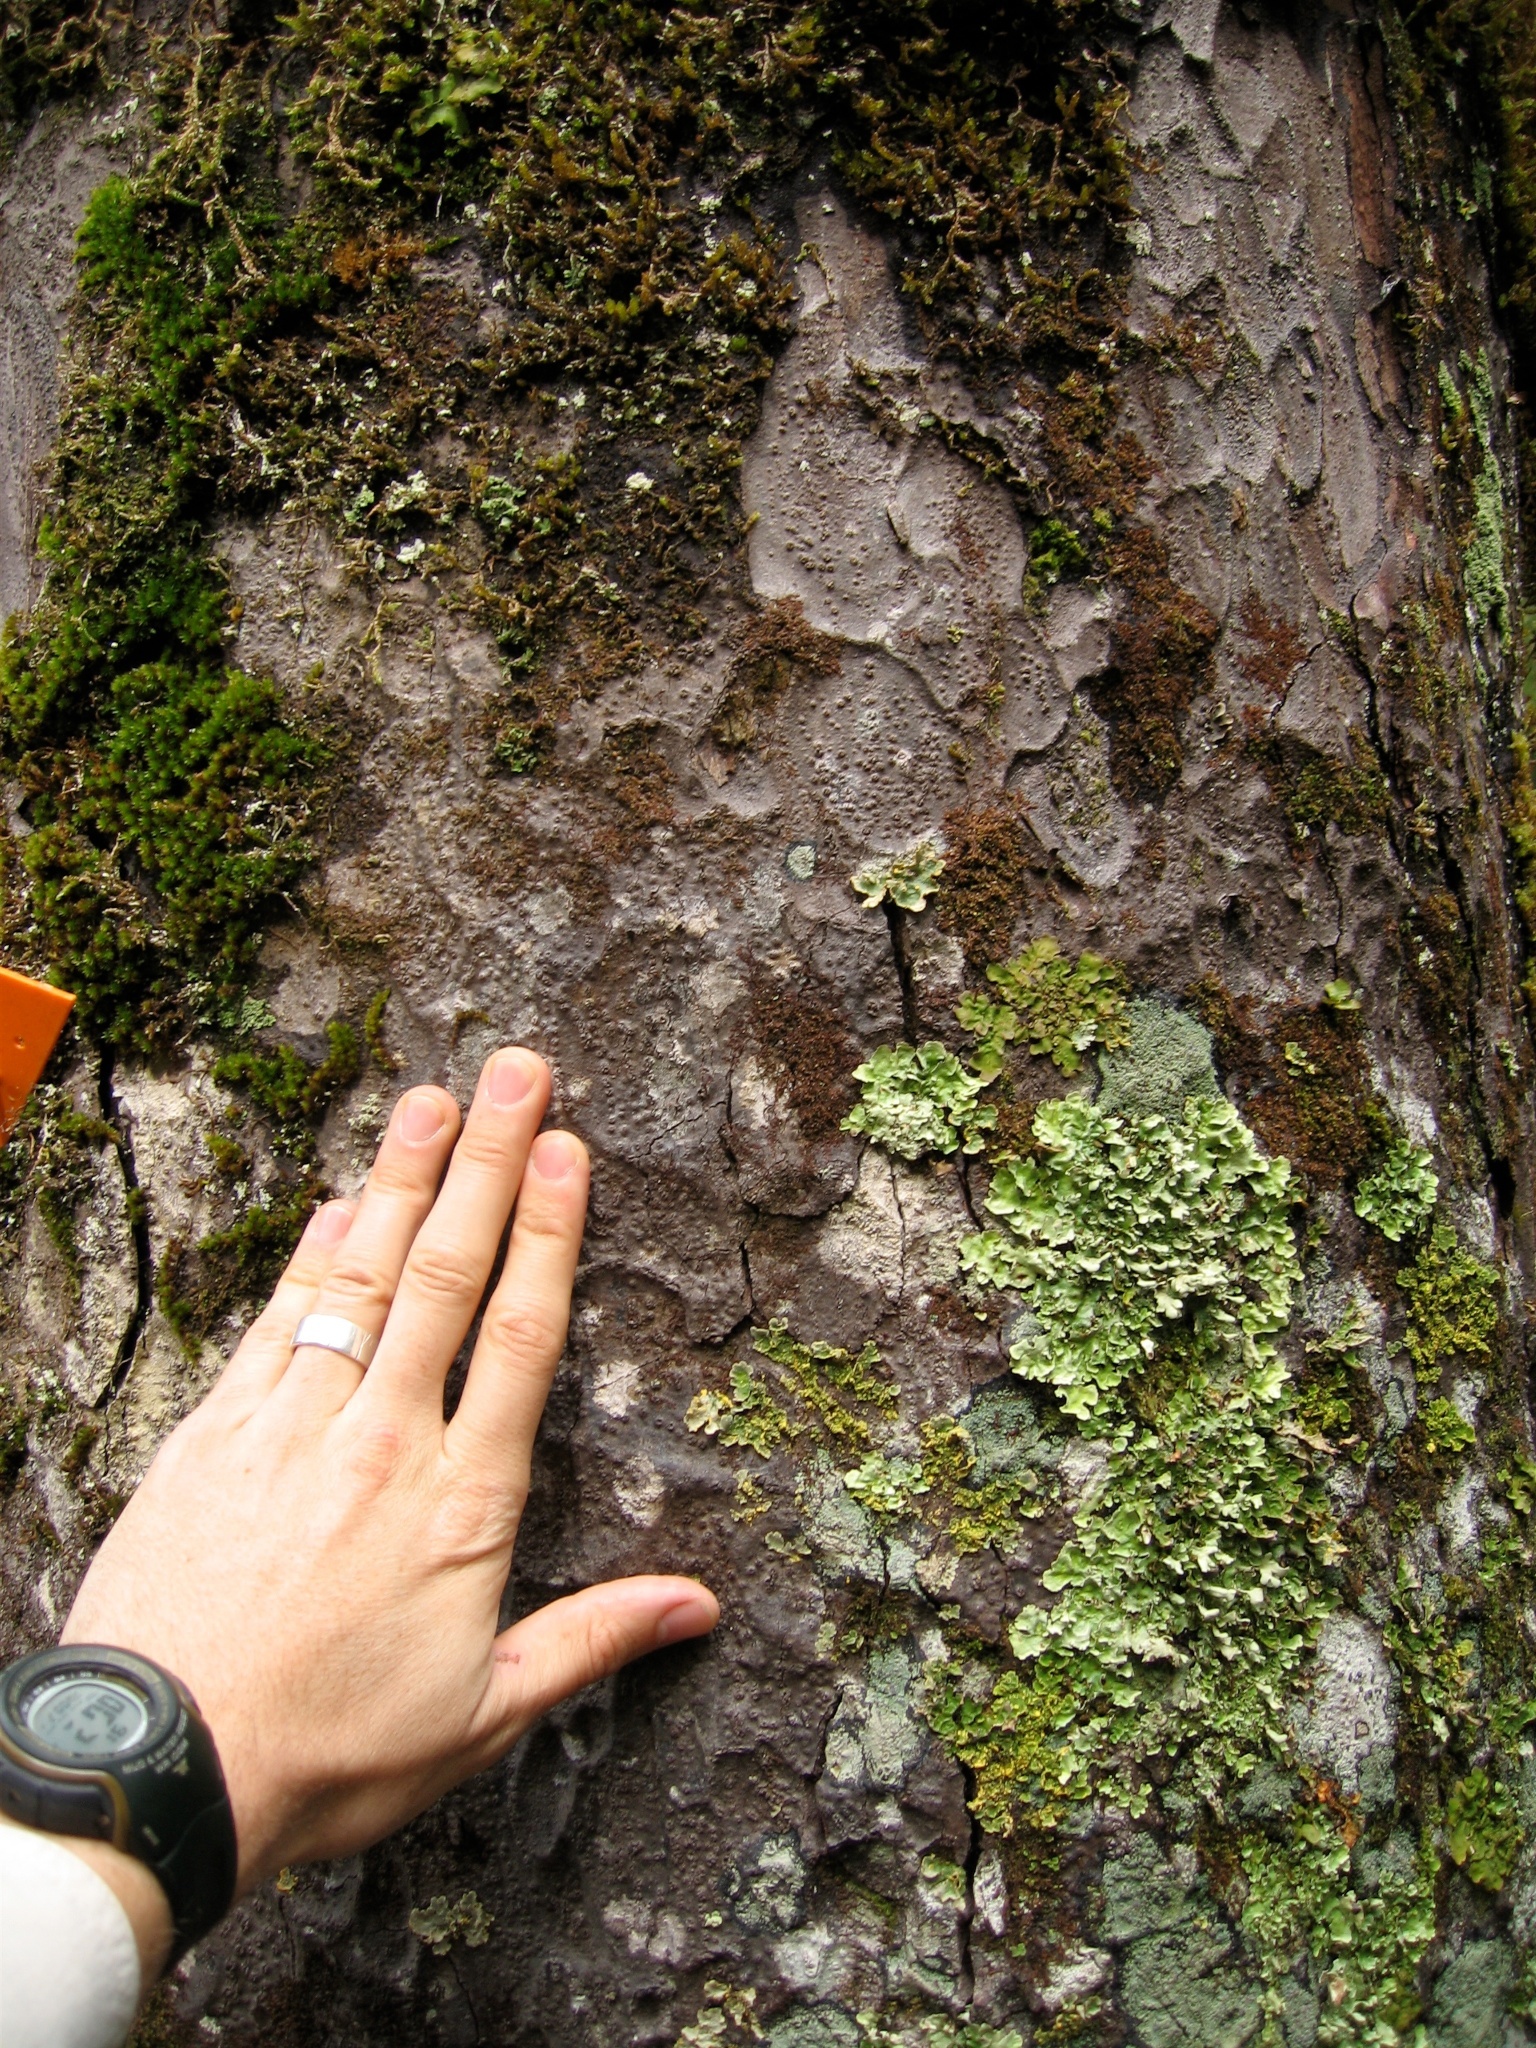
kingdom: Plantae
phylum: Tracheophyta
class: Pinopsida
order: Pinales
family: Podocarpaceae
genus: Dacrycarpus
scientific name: Dacrycarpus dacrydioides
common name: White pine
